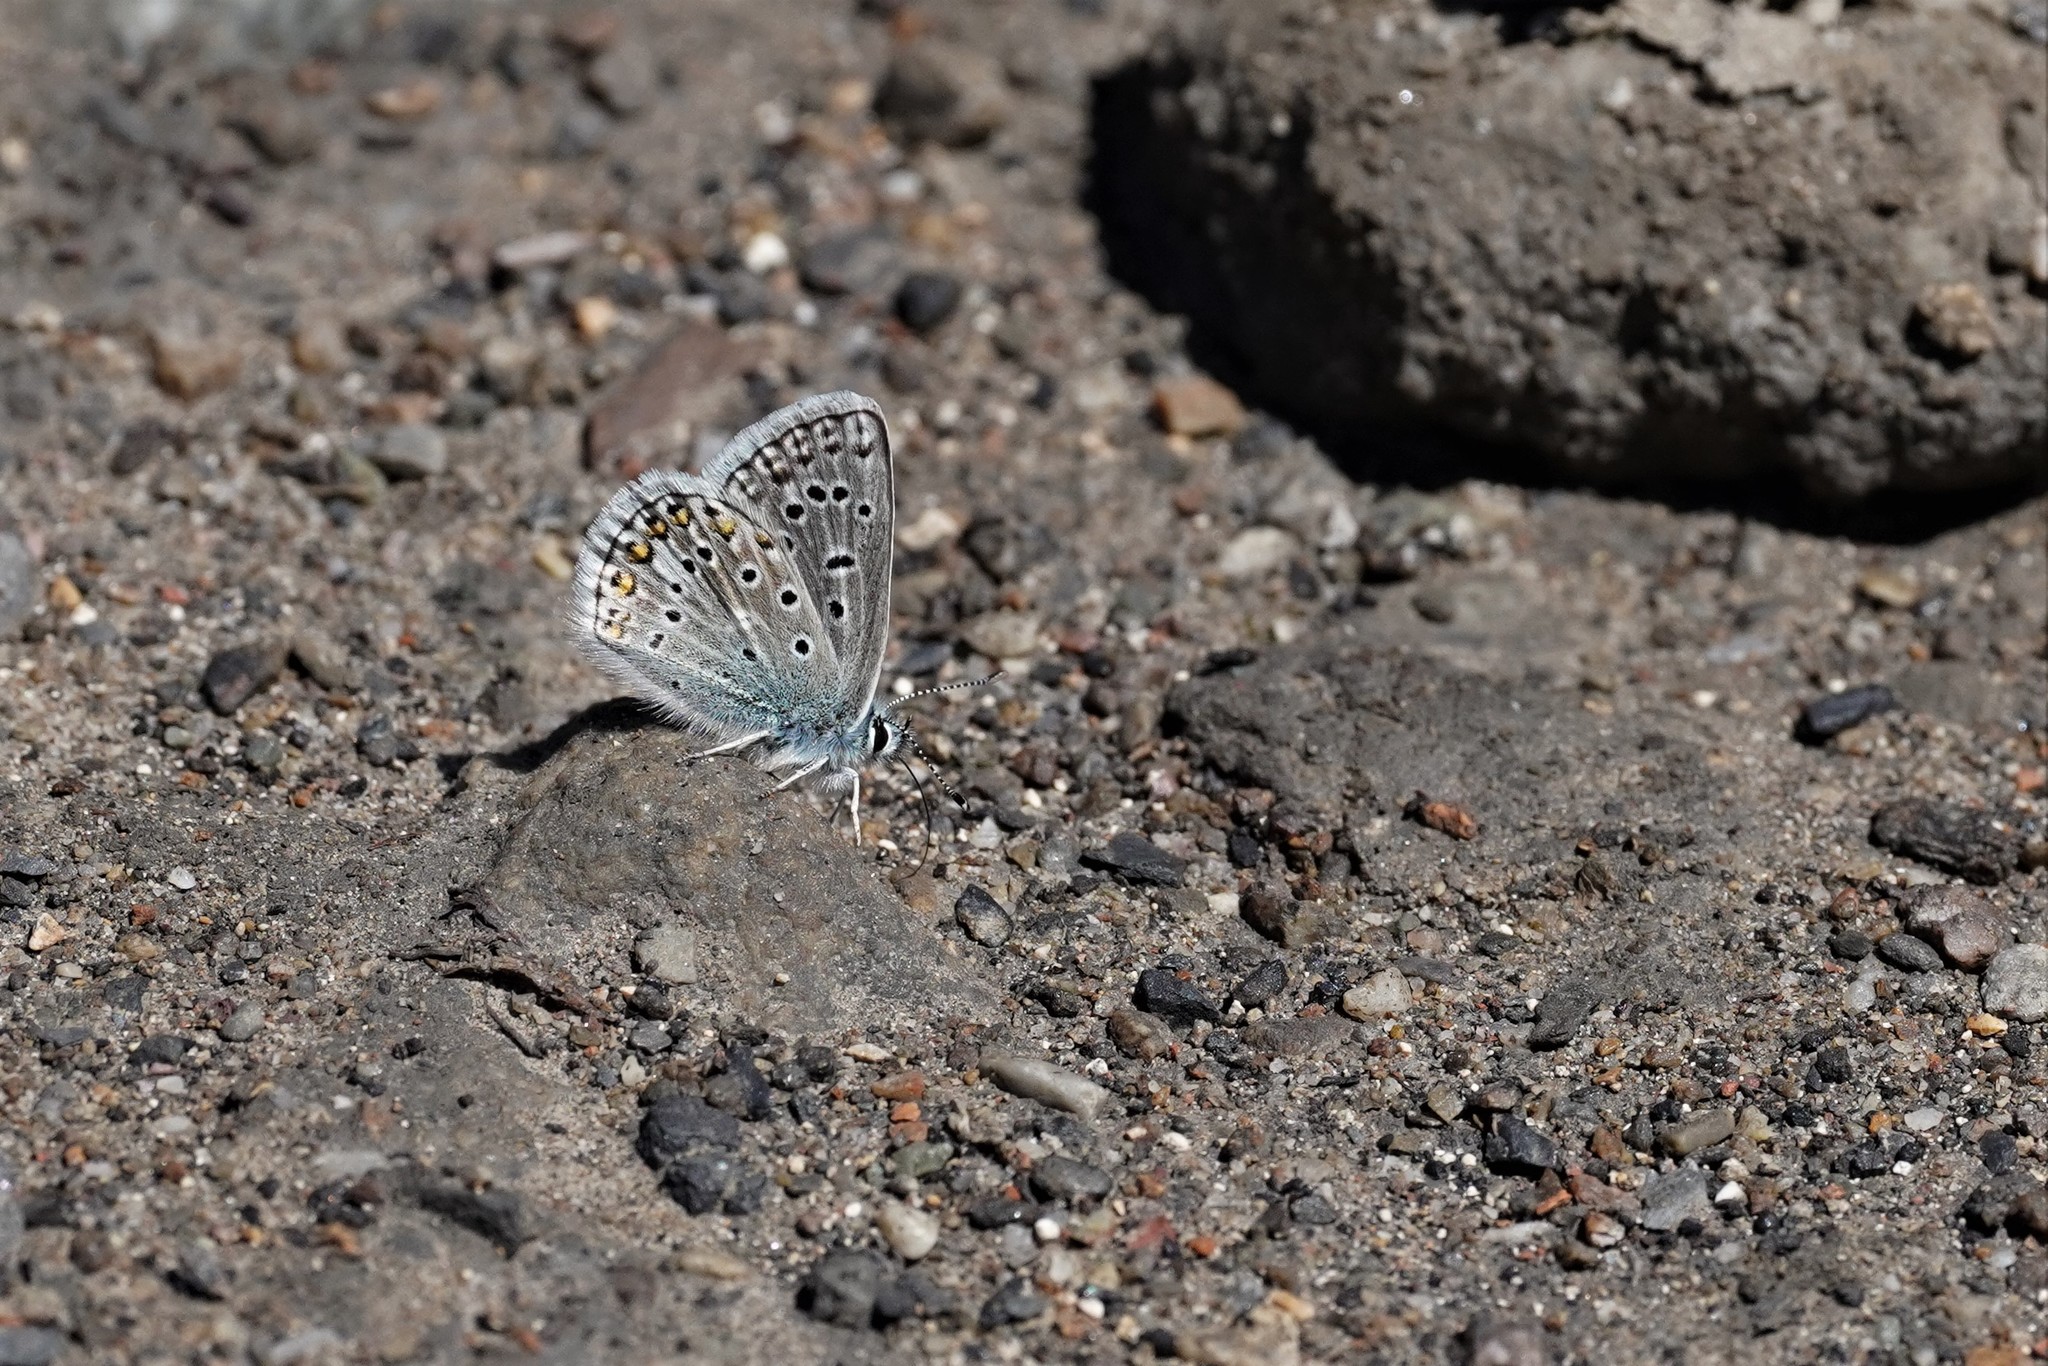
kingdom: Animalia
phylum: Arthropoda
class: Insecta
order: Lepidoptera
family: Lycaenidae
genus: Polyommatus
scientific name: Polyommatus eros
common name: Eros blue
